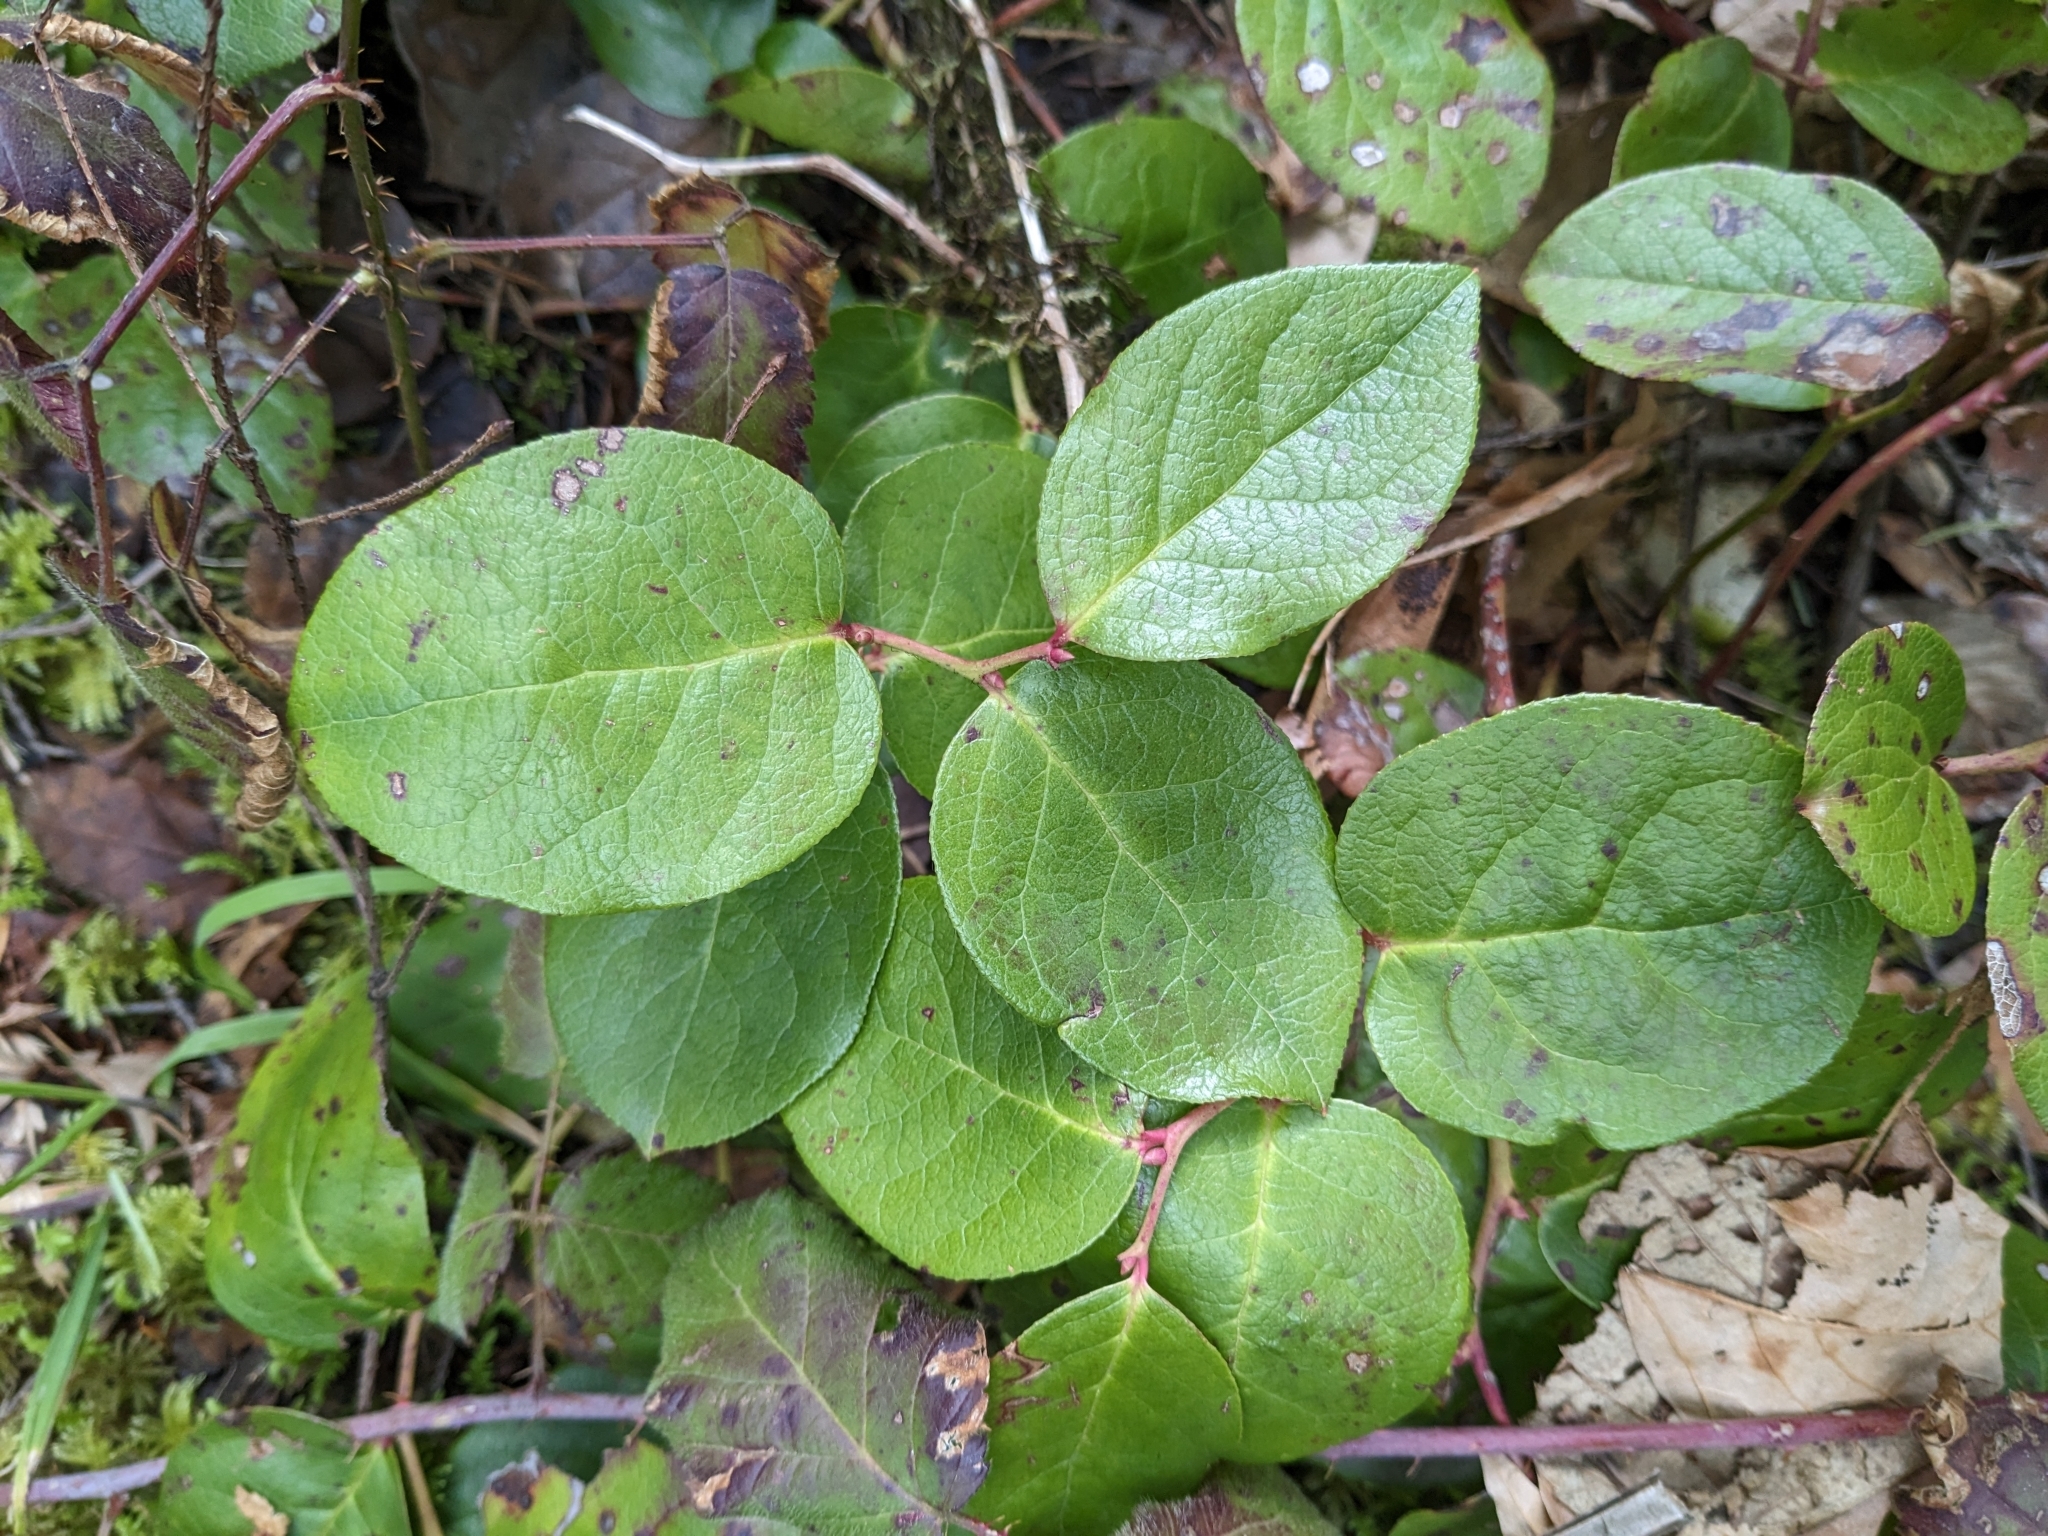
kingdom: Plantae
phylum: Tracheophyta
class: Magnoliopsida
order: Ericales
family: Ericaceae
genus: Gaultheria
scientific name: Gaultheria shallon
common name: Shallon
